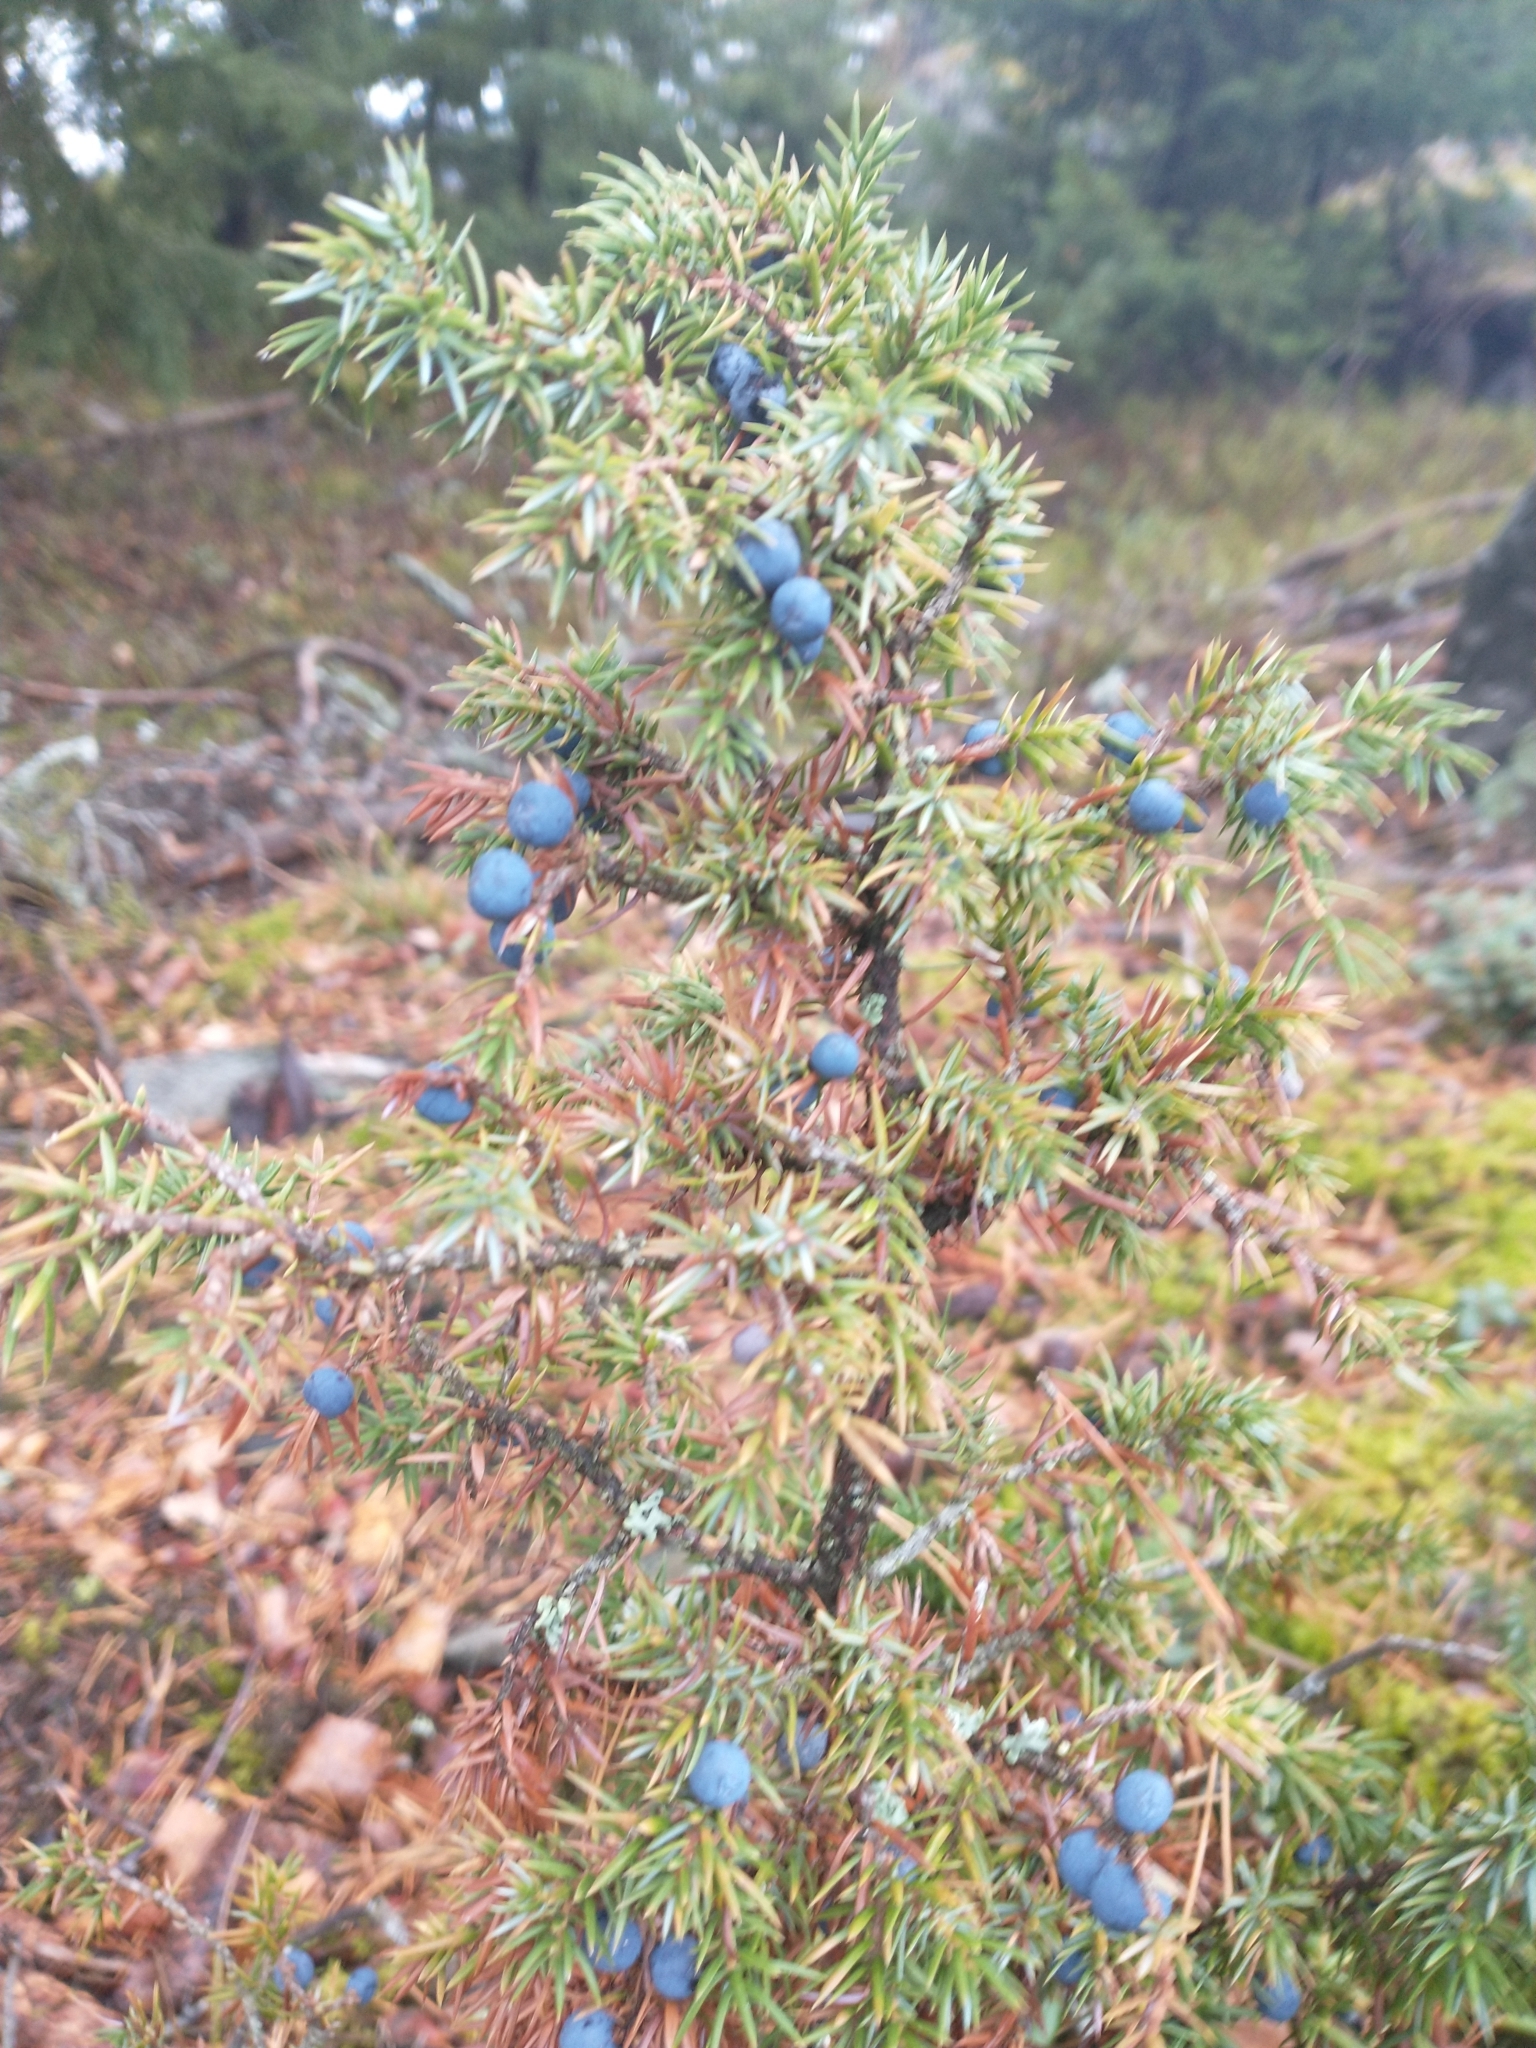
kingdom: Plantae
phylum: Tracheophyta
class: Pinopsida
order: Pinales
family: Cupressaceae
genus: Juniperus
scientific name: Juniperus communis
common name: Common juniper
